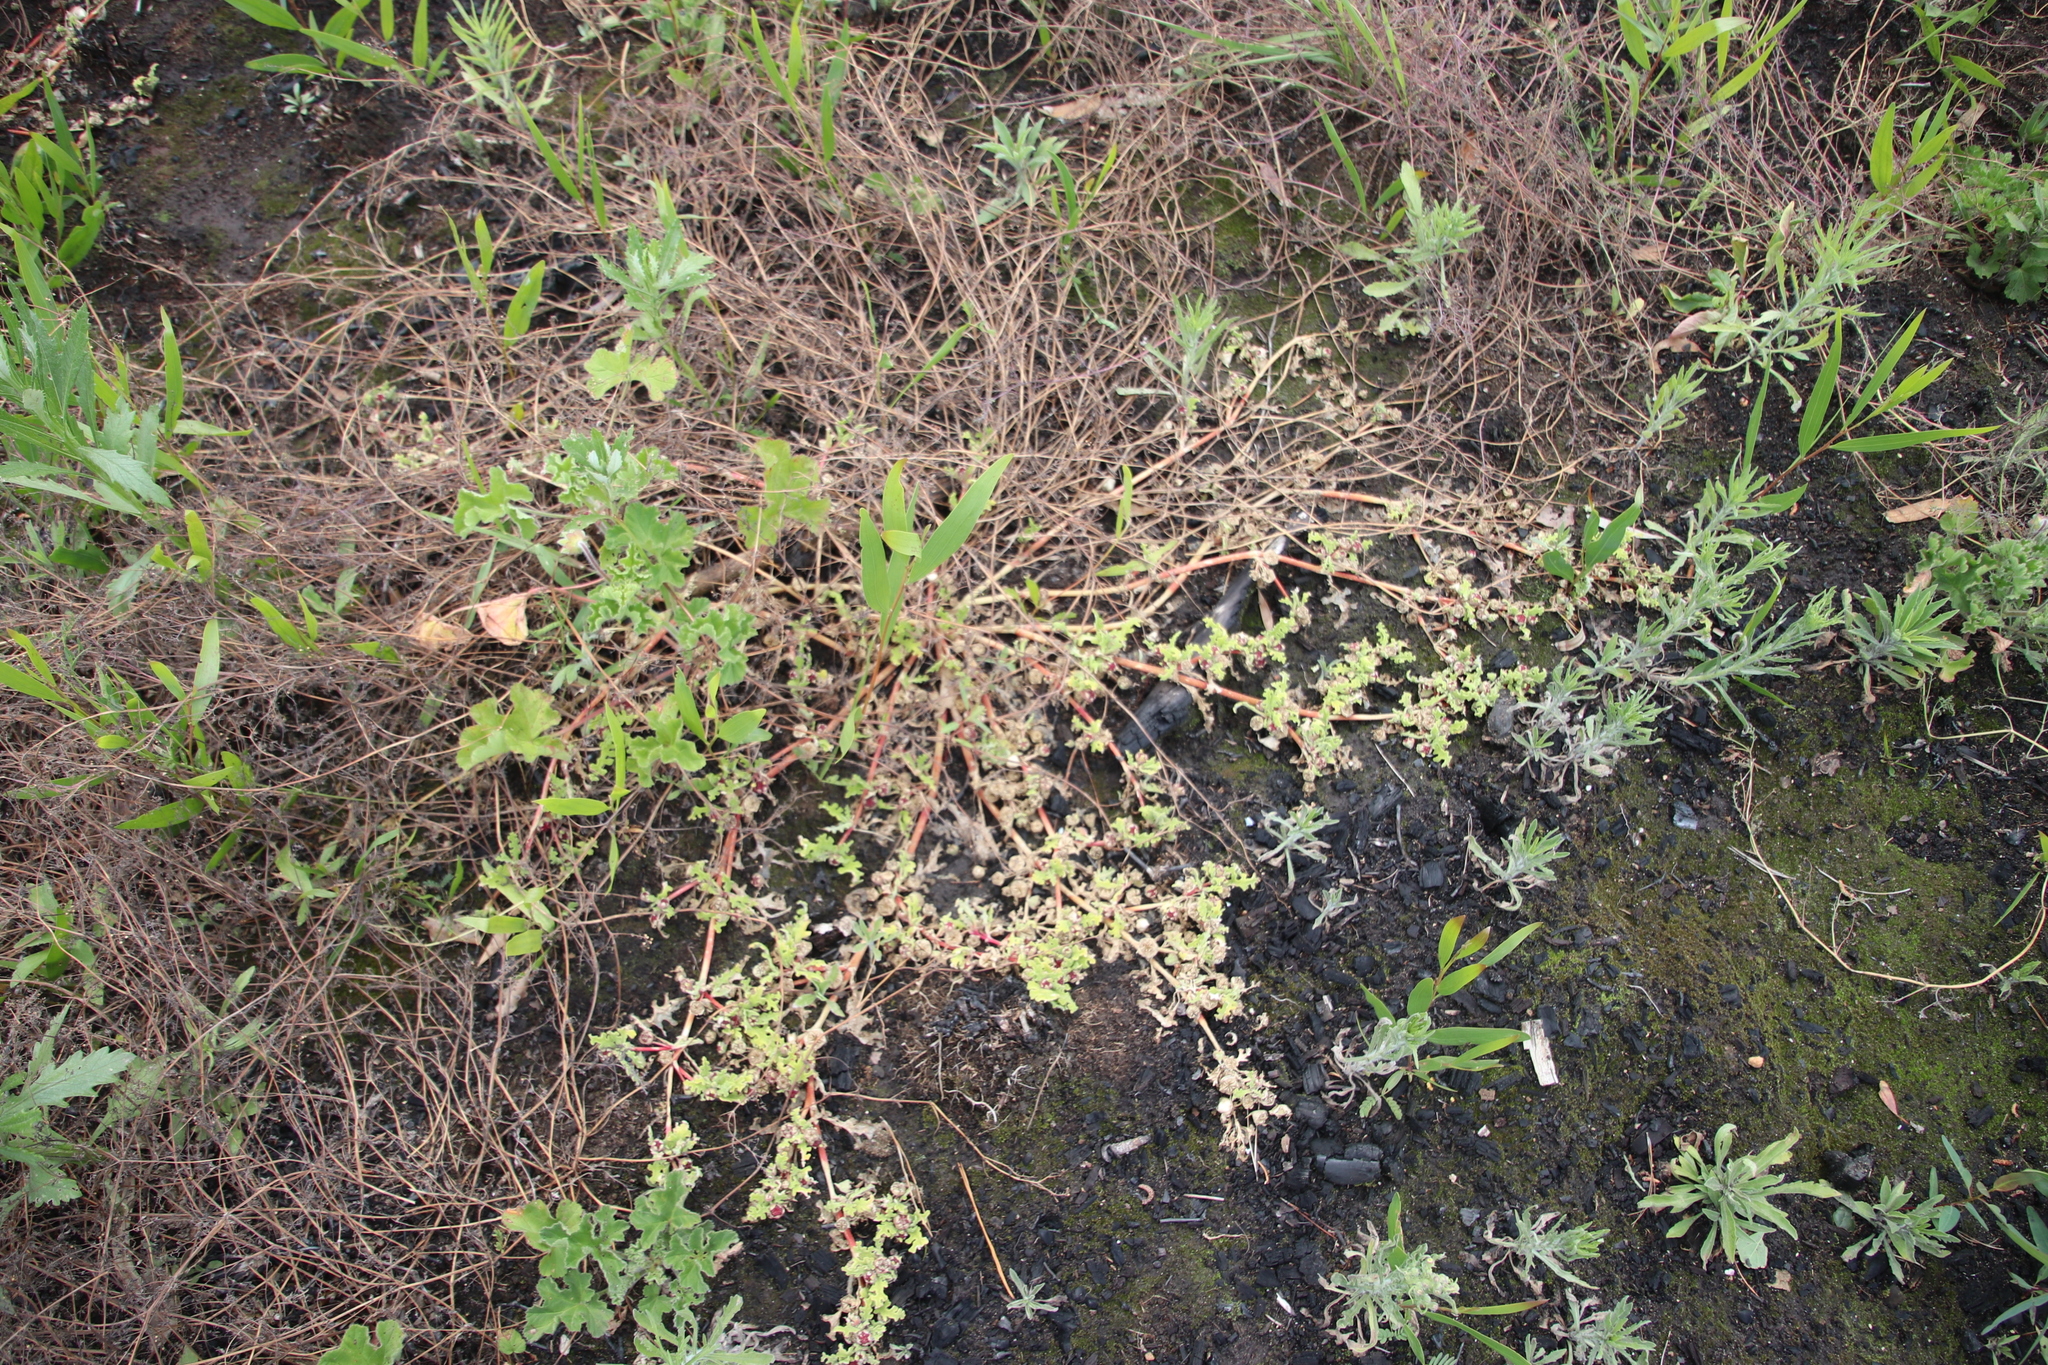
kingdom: Plantae
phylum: Tracheophyta
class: Magnoliopsida
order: Caryophyllales
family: Aizoaceae
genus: Cleretum
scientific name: Cleretum herrei
